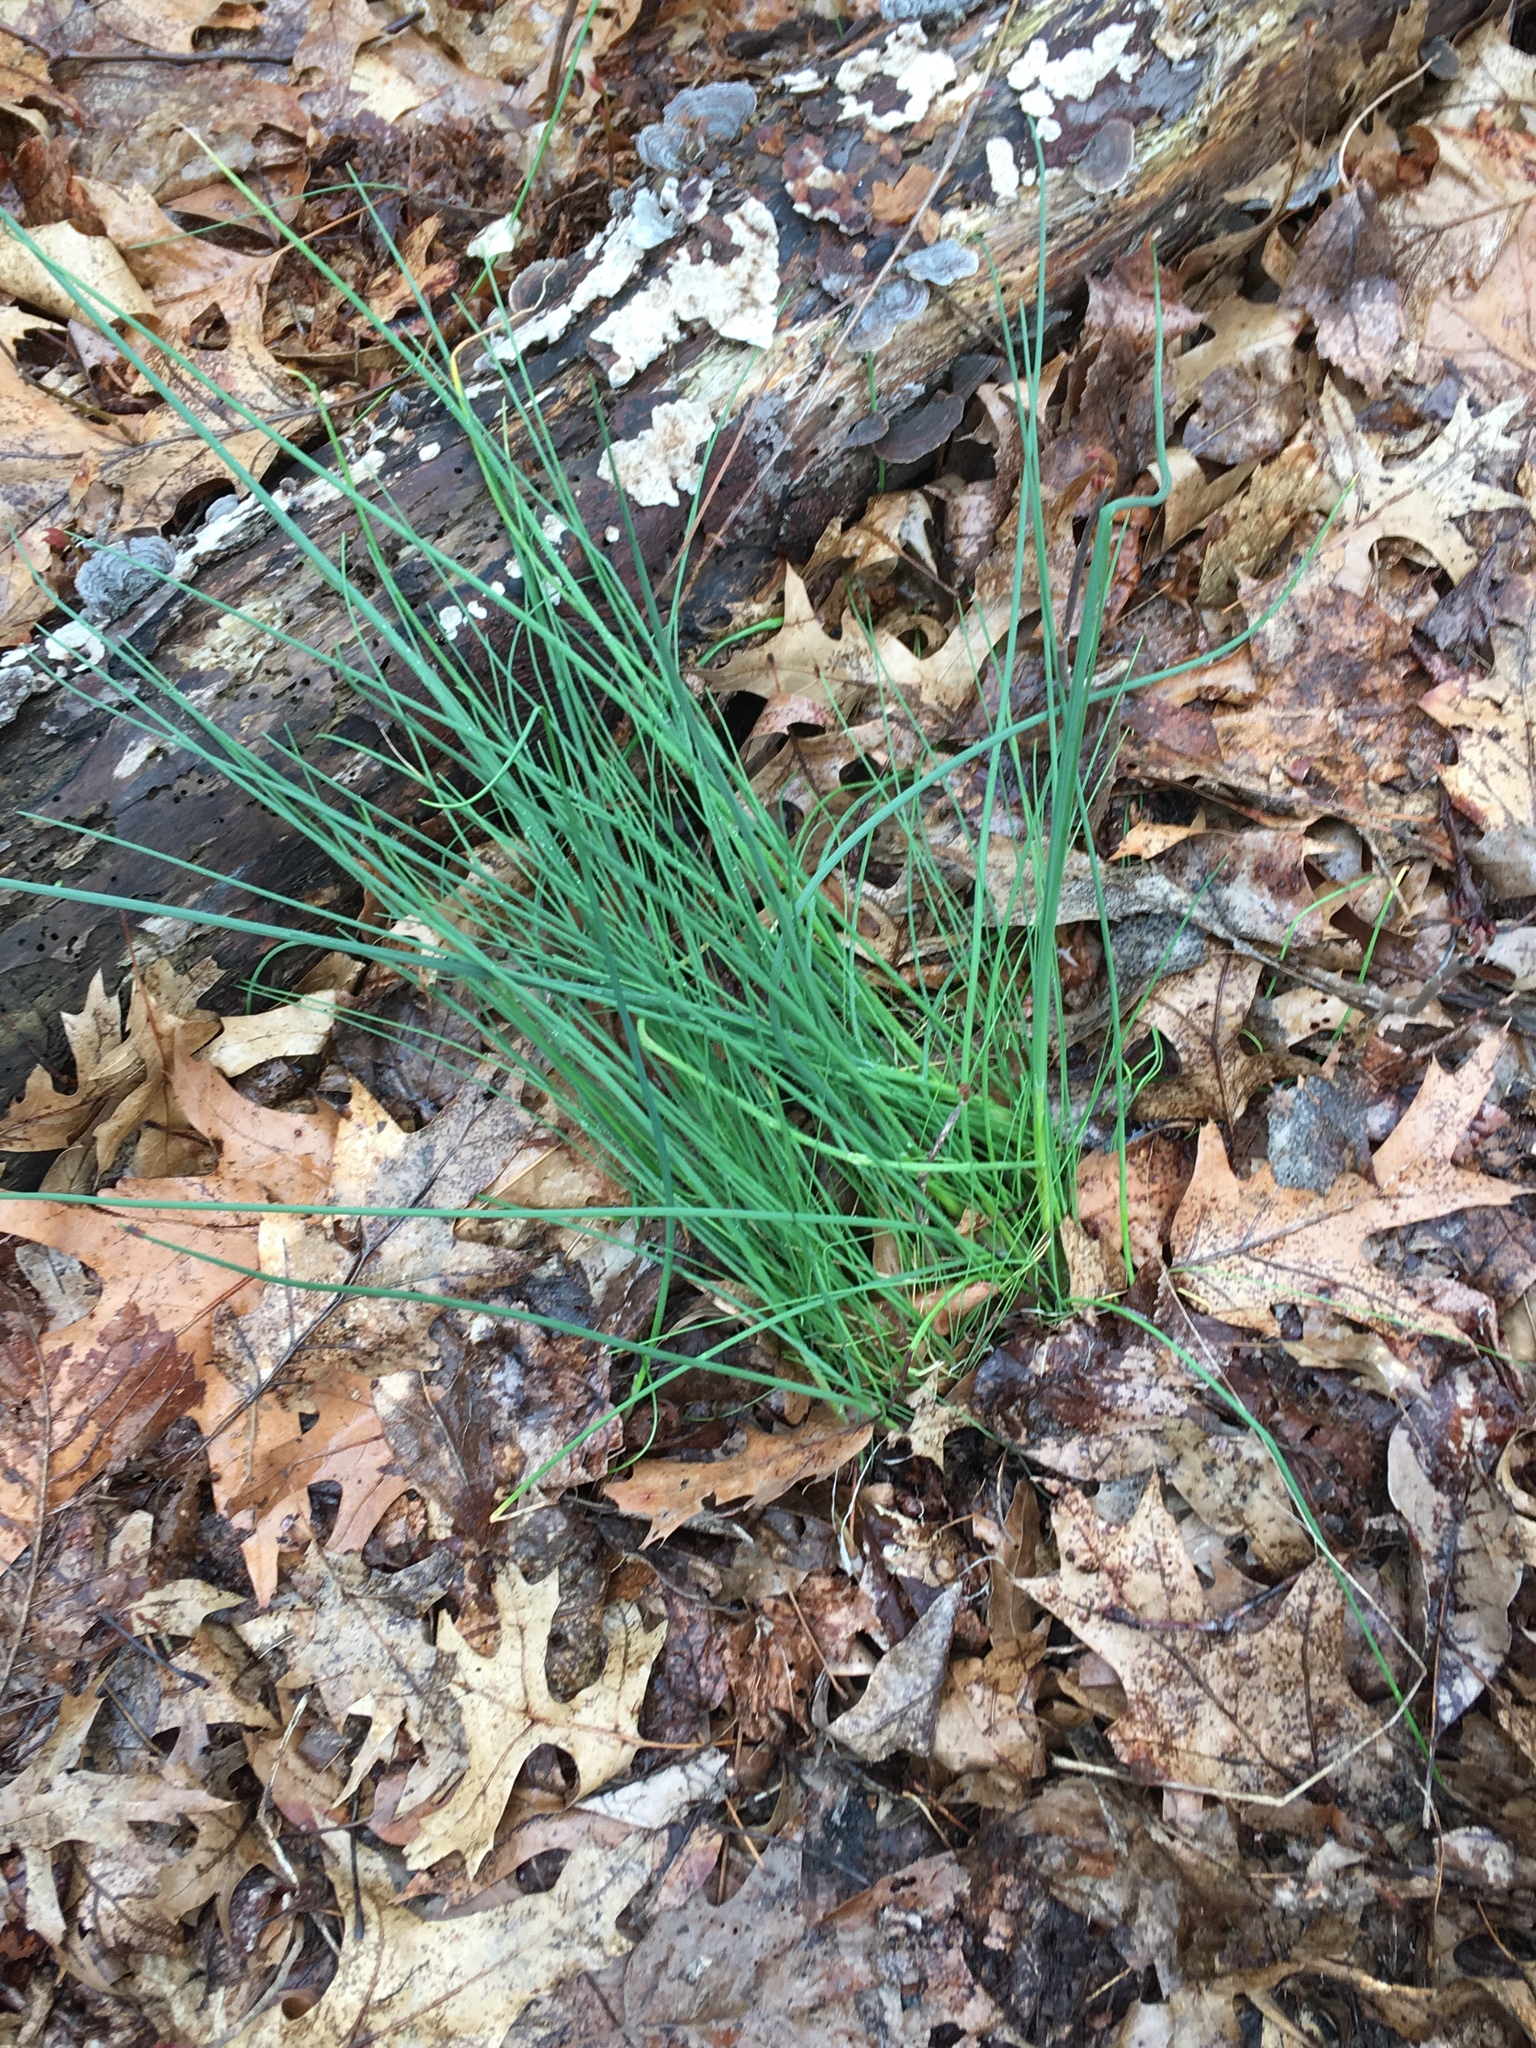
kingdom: Plantae
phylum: Tracheophyta
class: Liliopsida
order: Asparagales
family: Amaryllidaceae
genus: Allium
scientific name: Allium vineale
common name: Crow garlic
